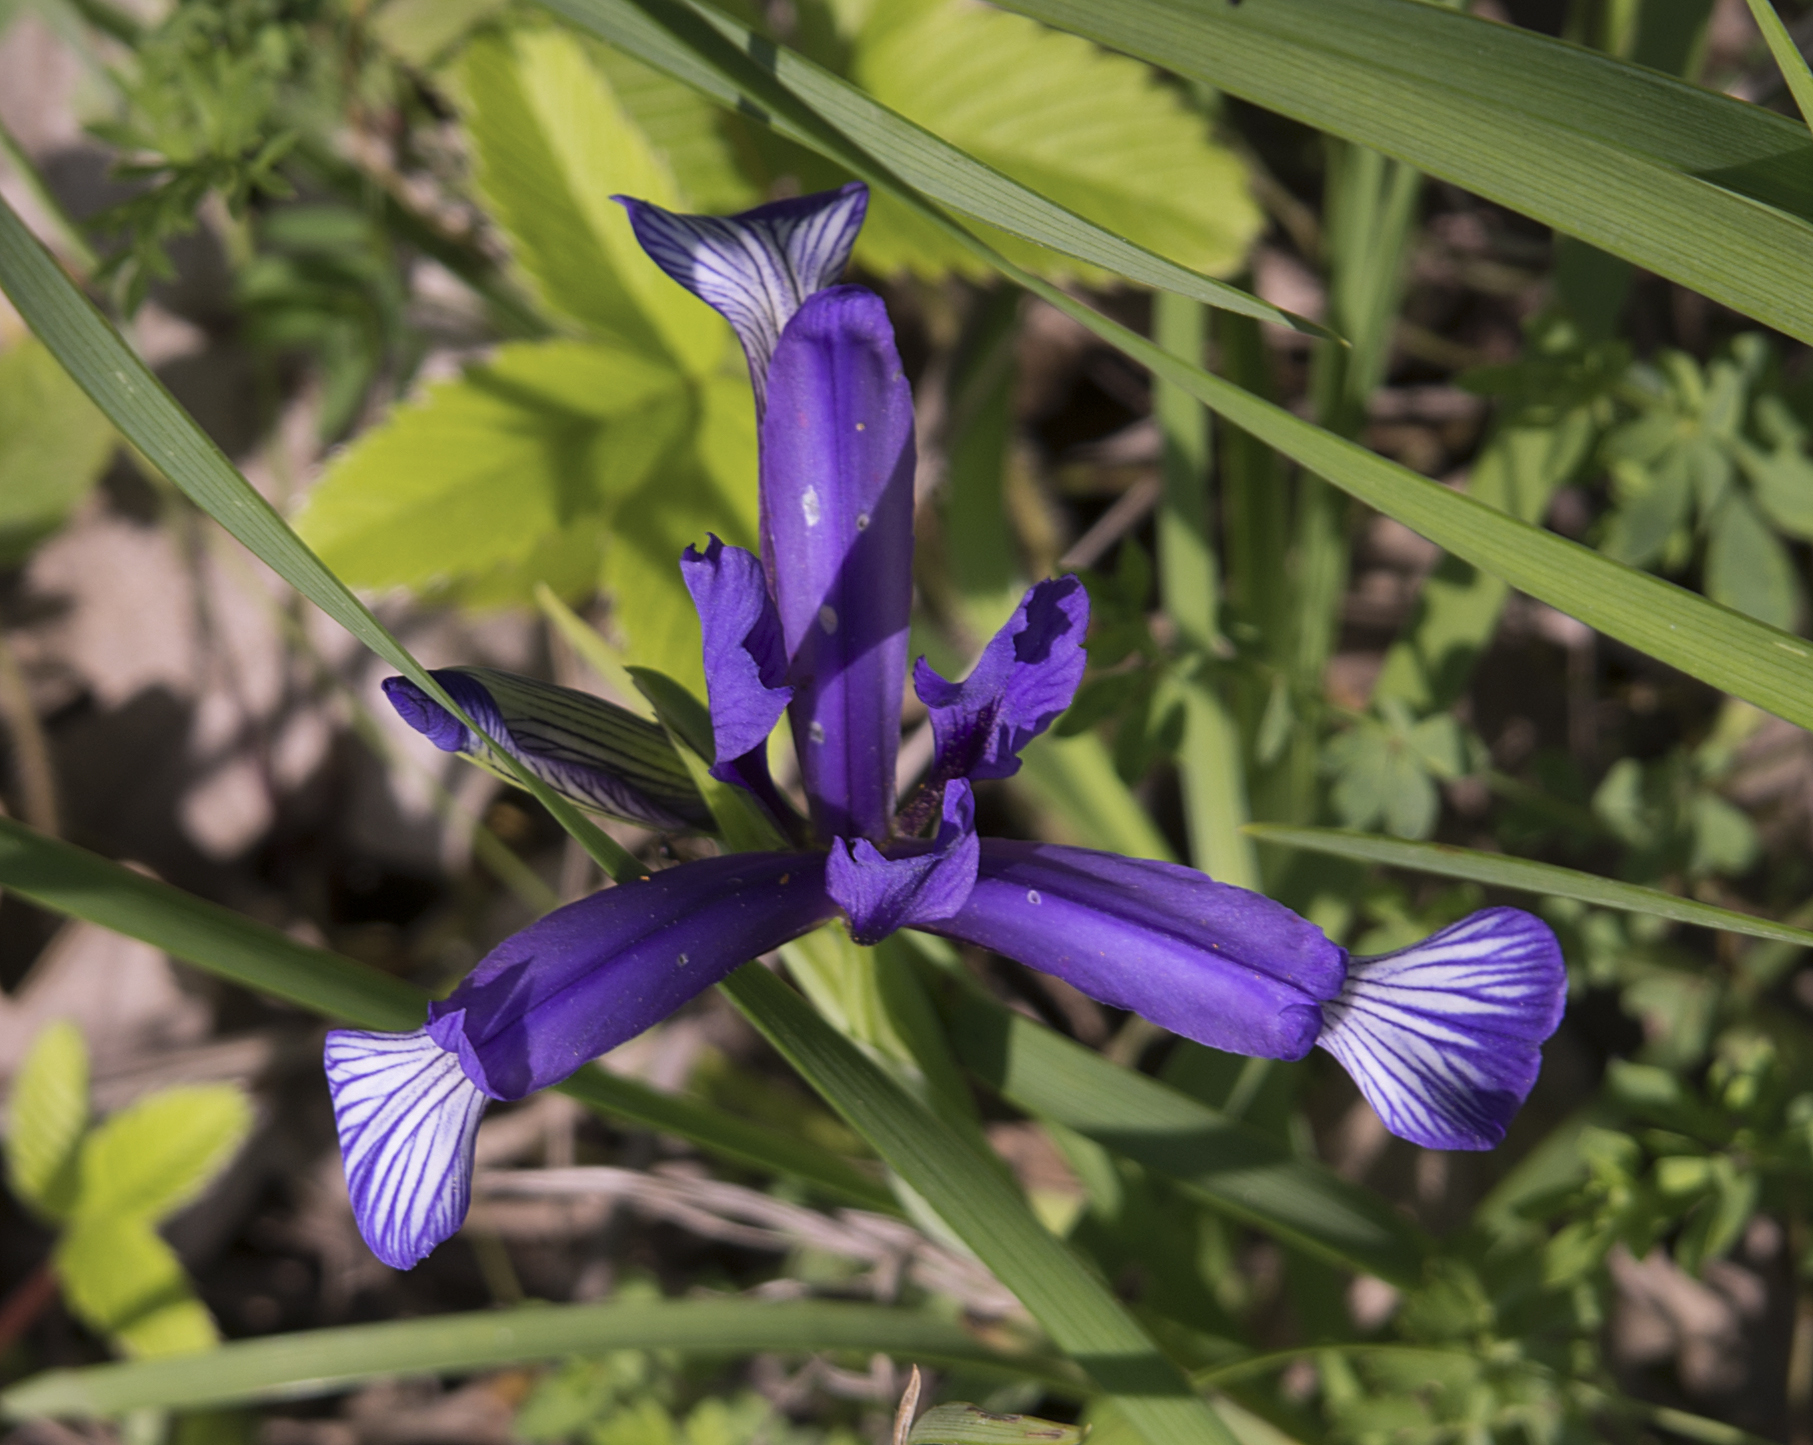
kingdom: Plantae
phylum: Tracheophyta
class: Liliopsida
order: Asparagales
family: Iridaceae
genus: Iris
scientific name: Iris sintenisii
